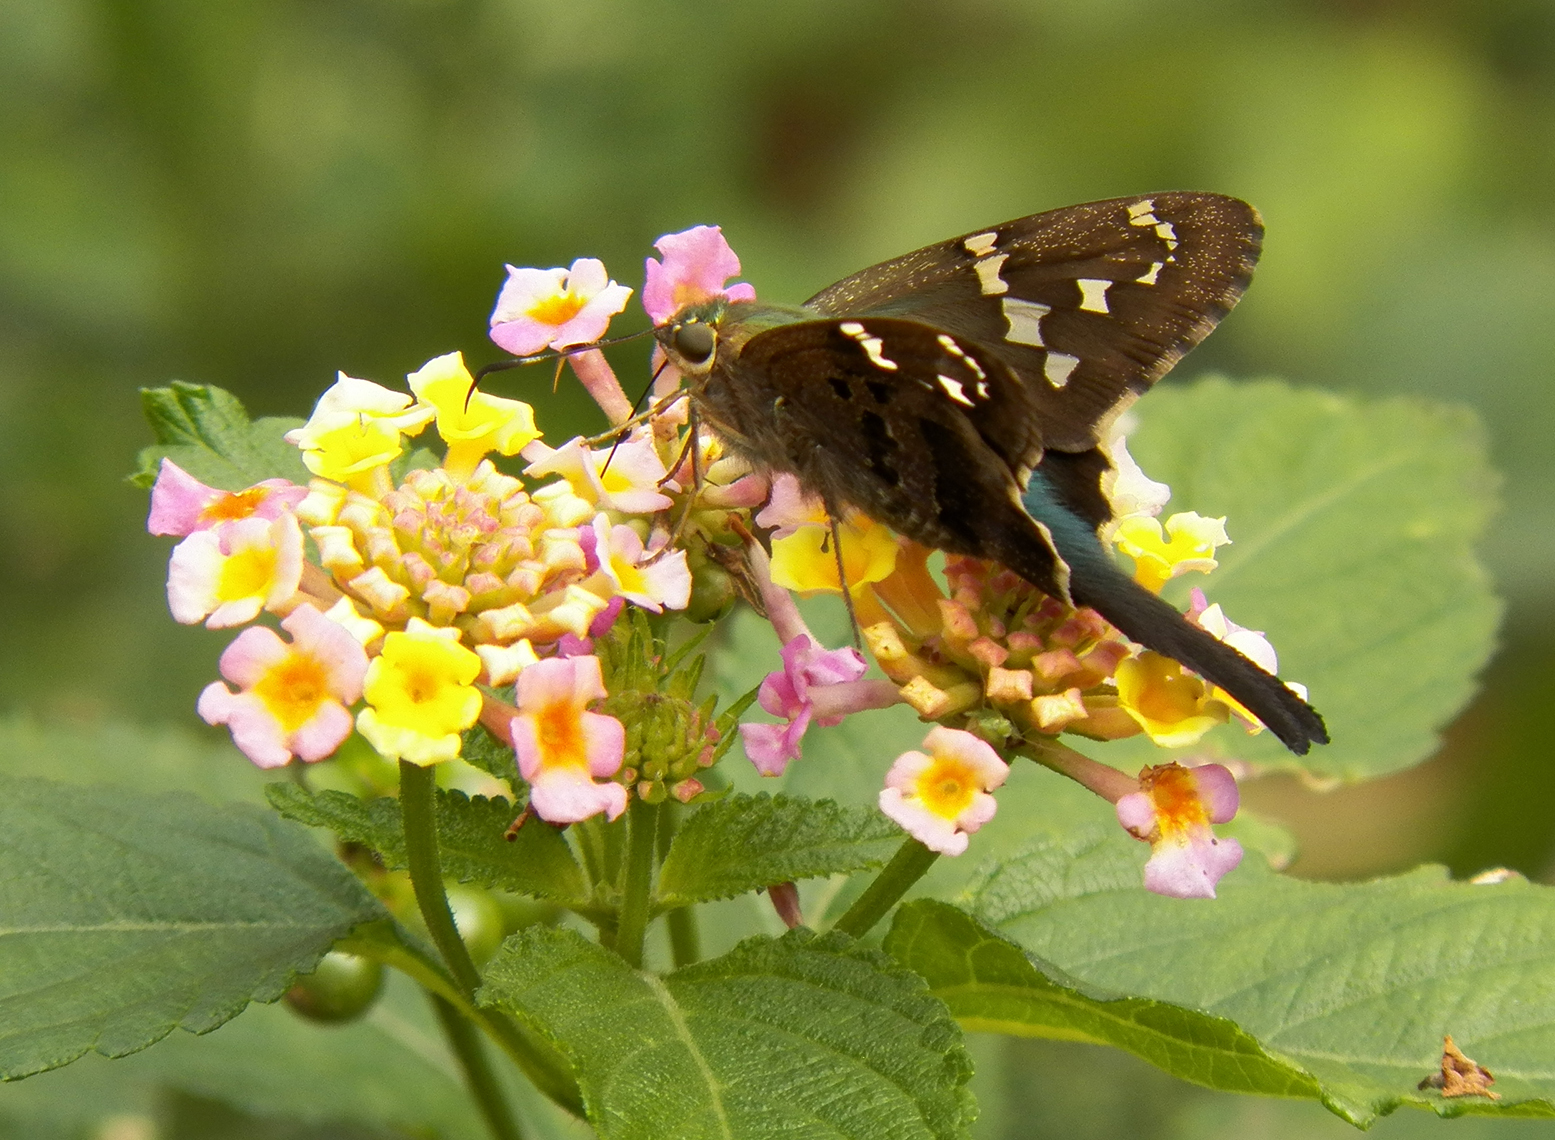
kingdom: Animalia
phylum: Arthropoda
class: Insecta
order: Lepidoptera
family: Hesperiidae
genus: Urbanus
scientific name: Urbanus proteus
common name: Long-tailed skipper
